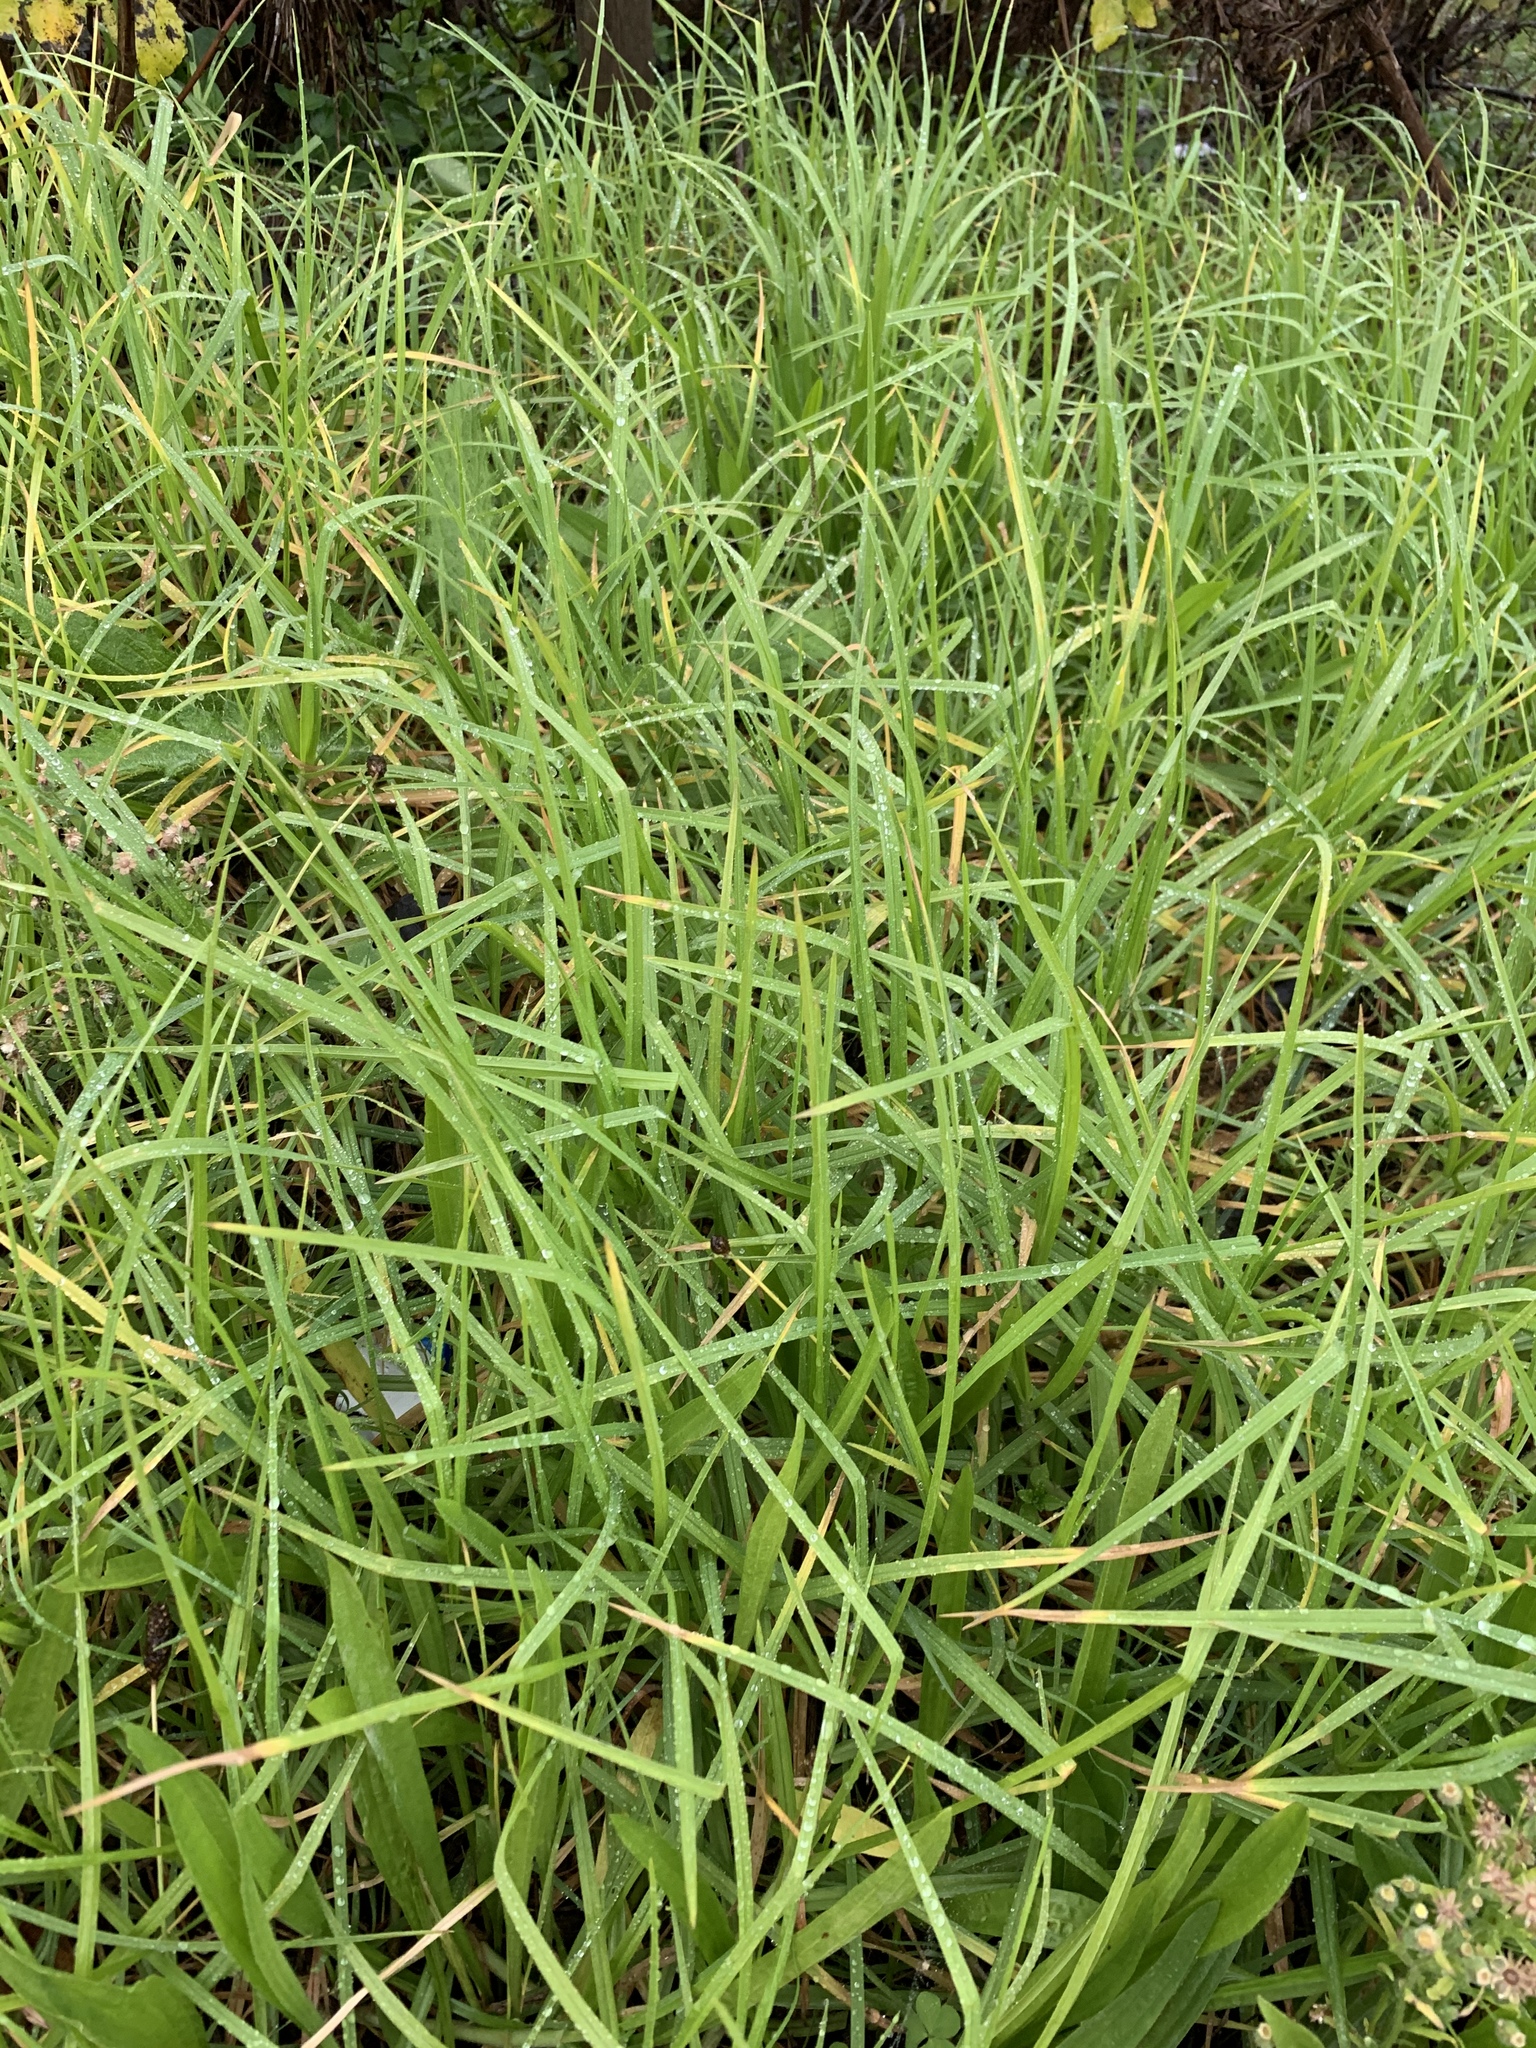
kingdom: Plantae
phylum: Tracheophyta
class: Liliopsida
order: Poales
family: Poaceae
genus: Cenchrus
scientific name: Cenchrus clandestinus
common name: Kikuyugrass
